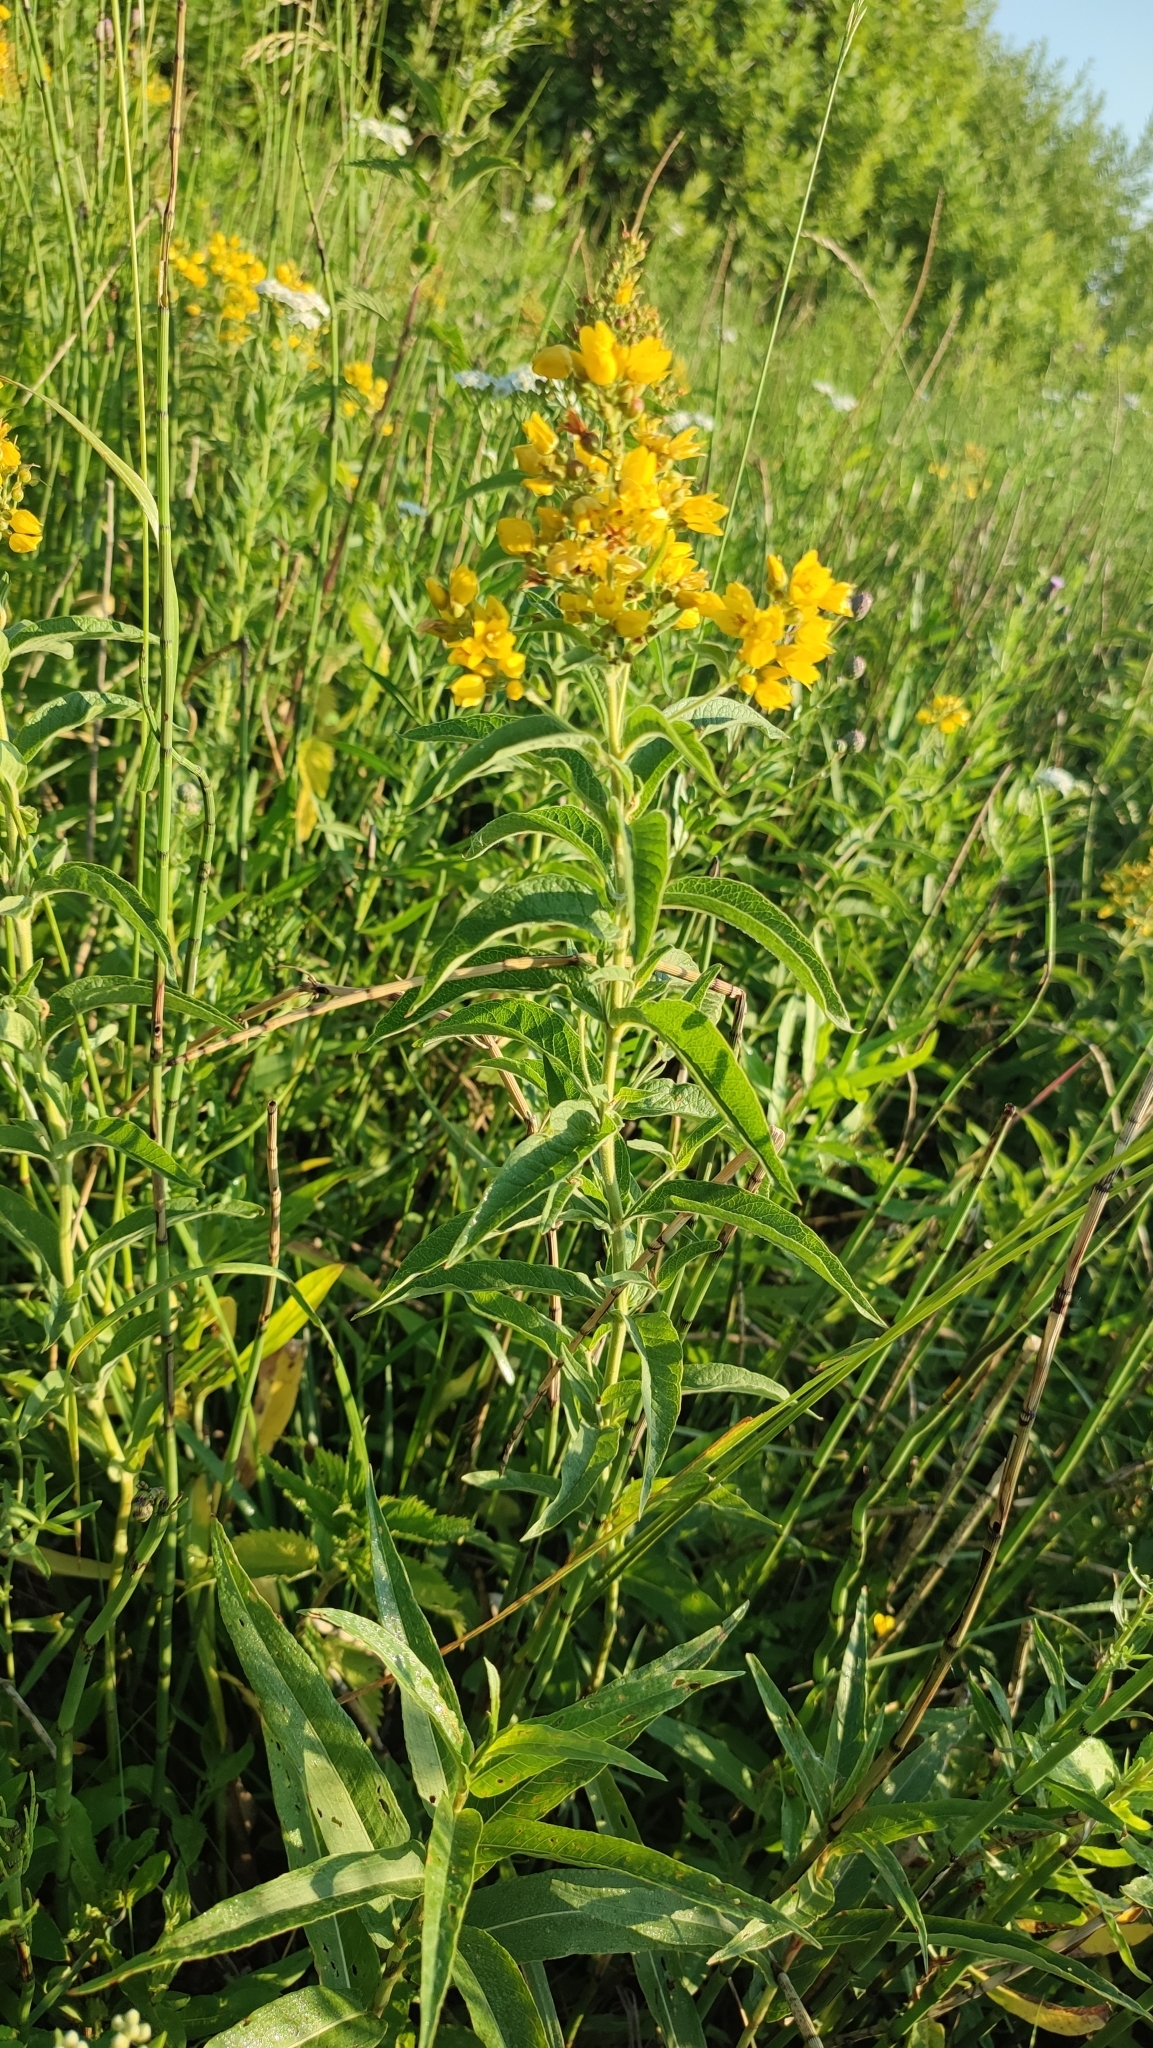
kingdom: Plantae
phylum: Tracheophyta
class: Magnoliopsida
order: Ericales
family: Primulaceae
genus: Lysimachia
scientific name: Lysimachia vulgaris
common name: Yellow loosestrife
